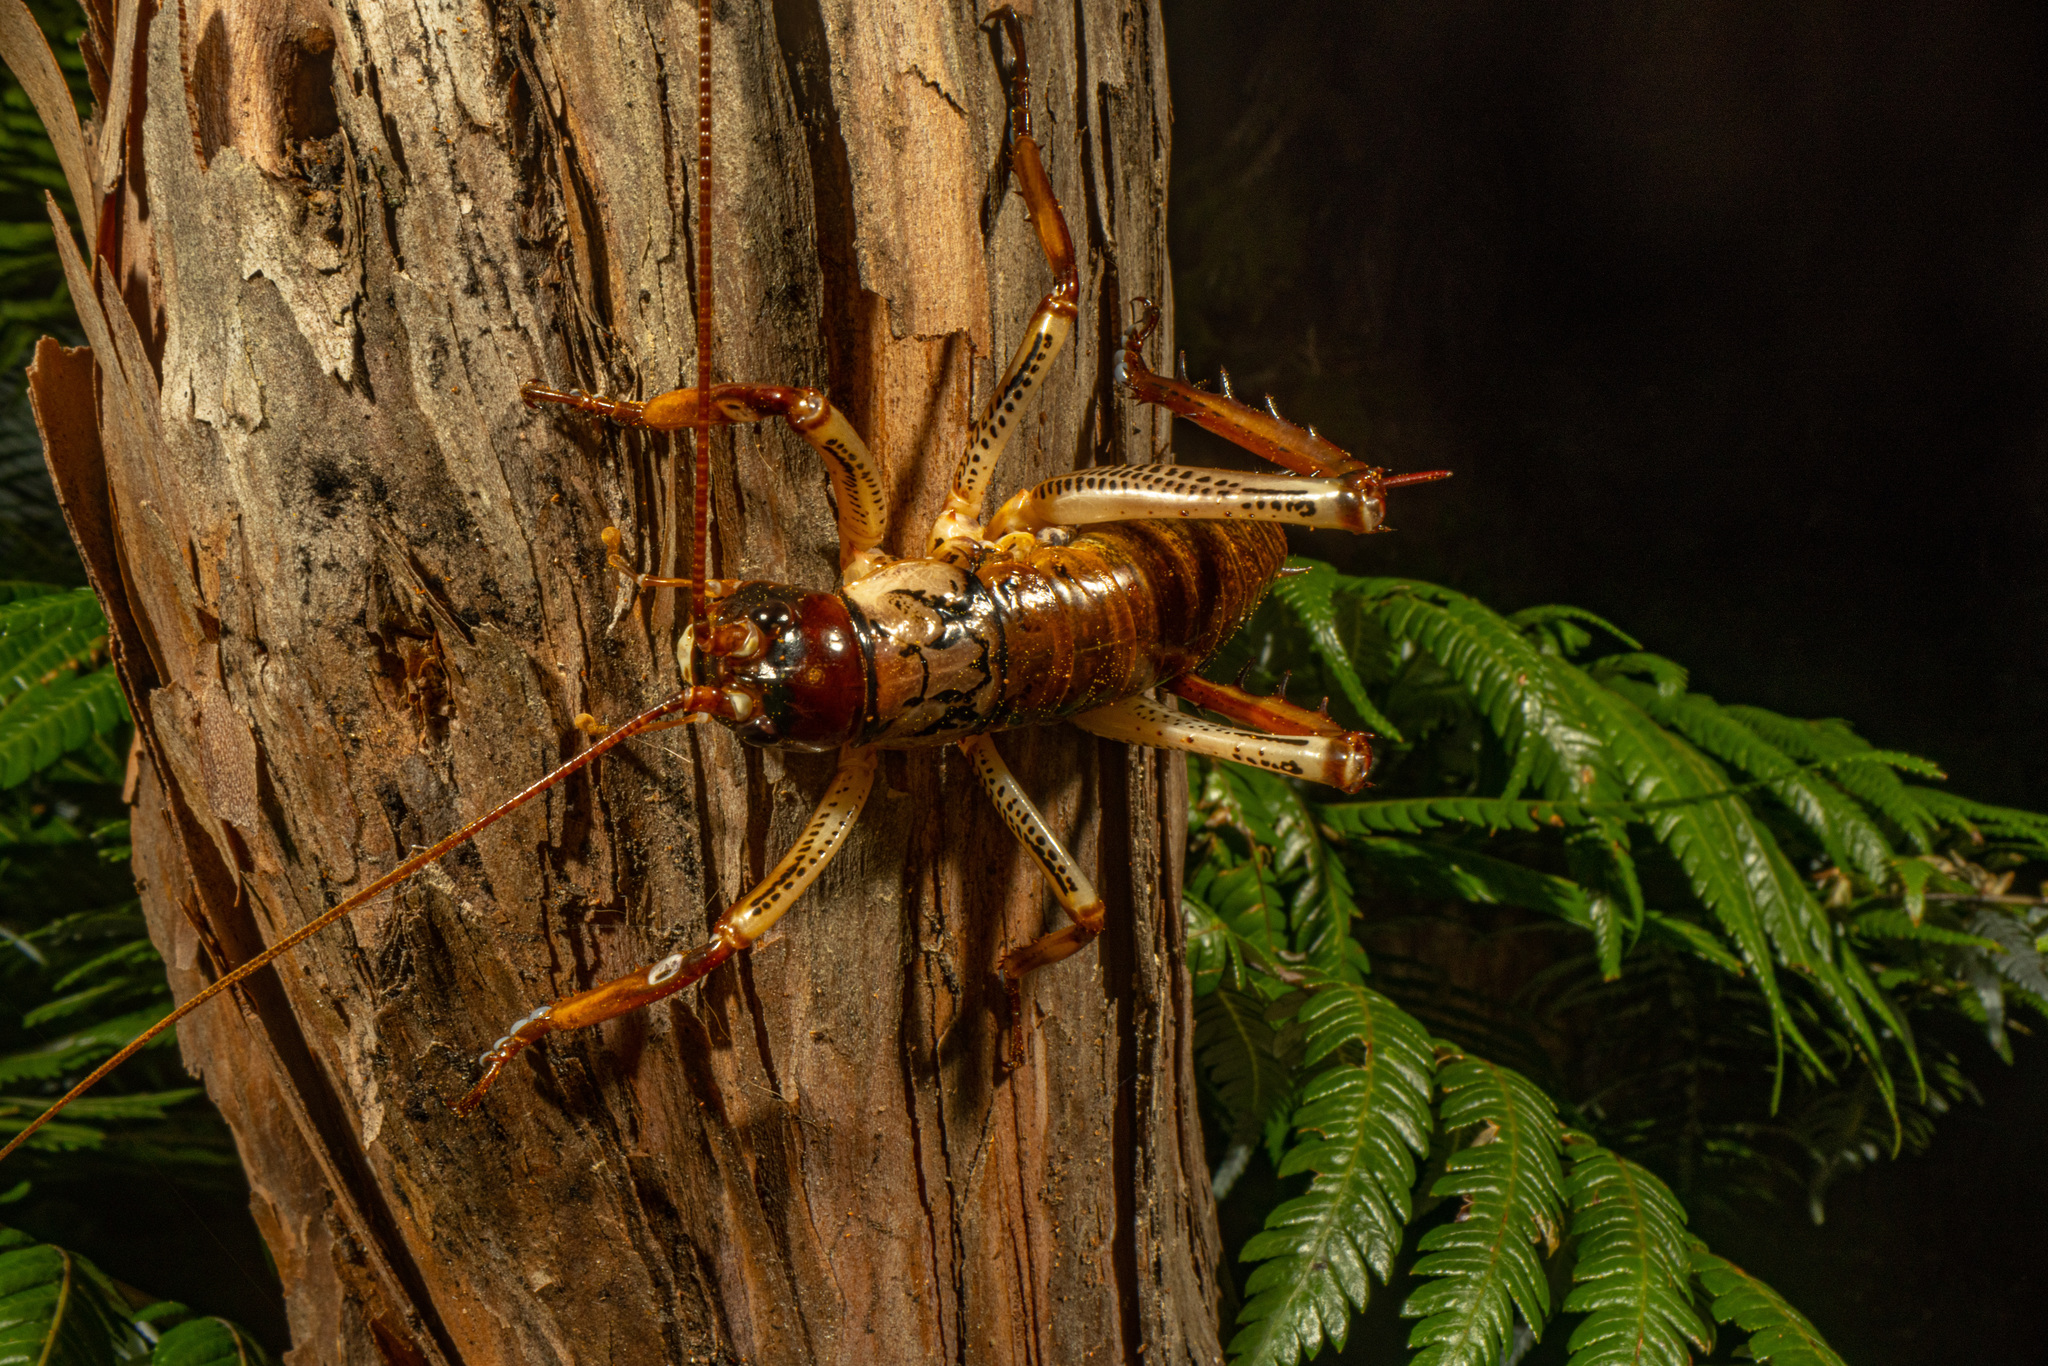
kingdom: Animalia
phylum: Arthropoda
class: Insecta
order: Orthoptera
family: Anostostomatidae
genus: Hemideina
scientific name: Hemideina thoracica
